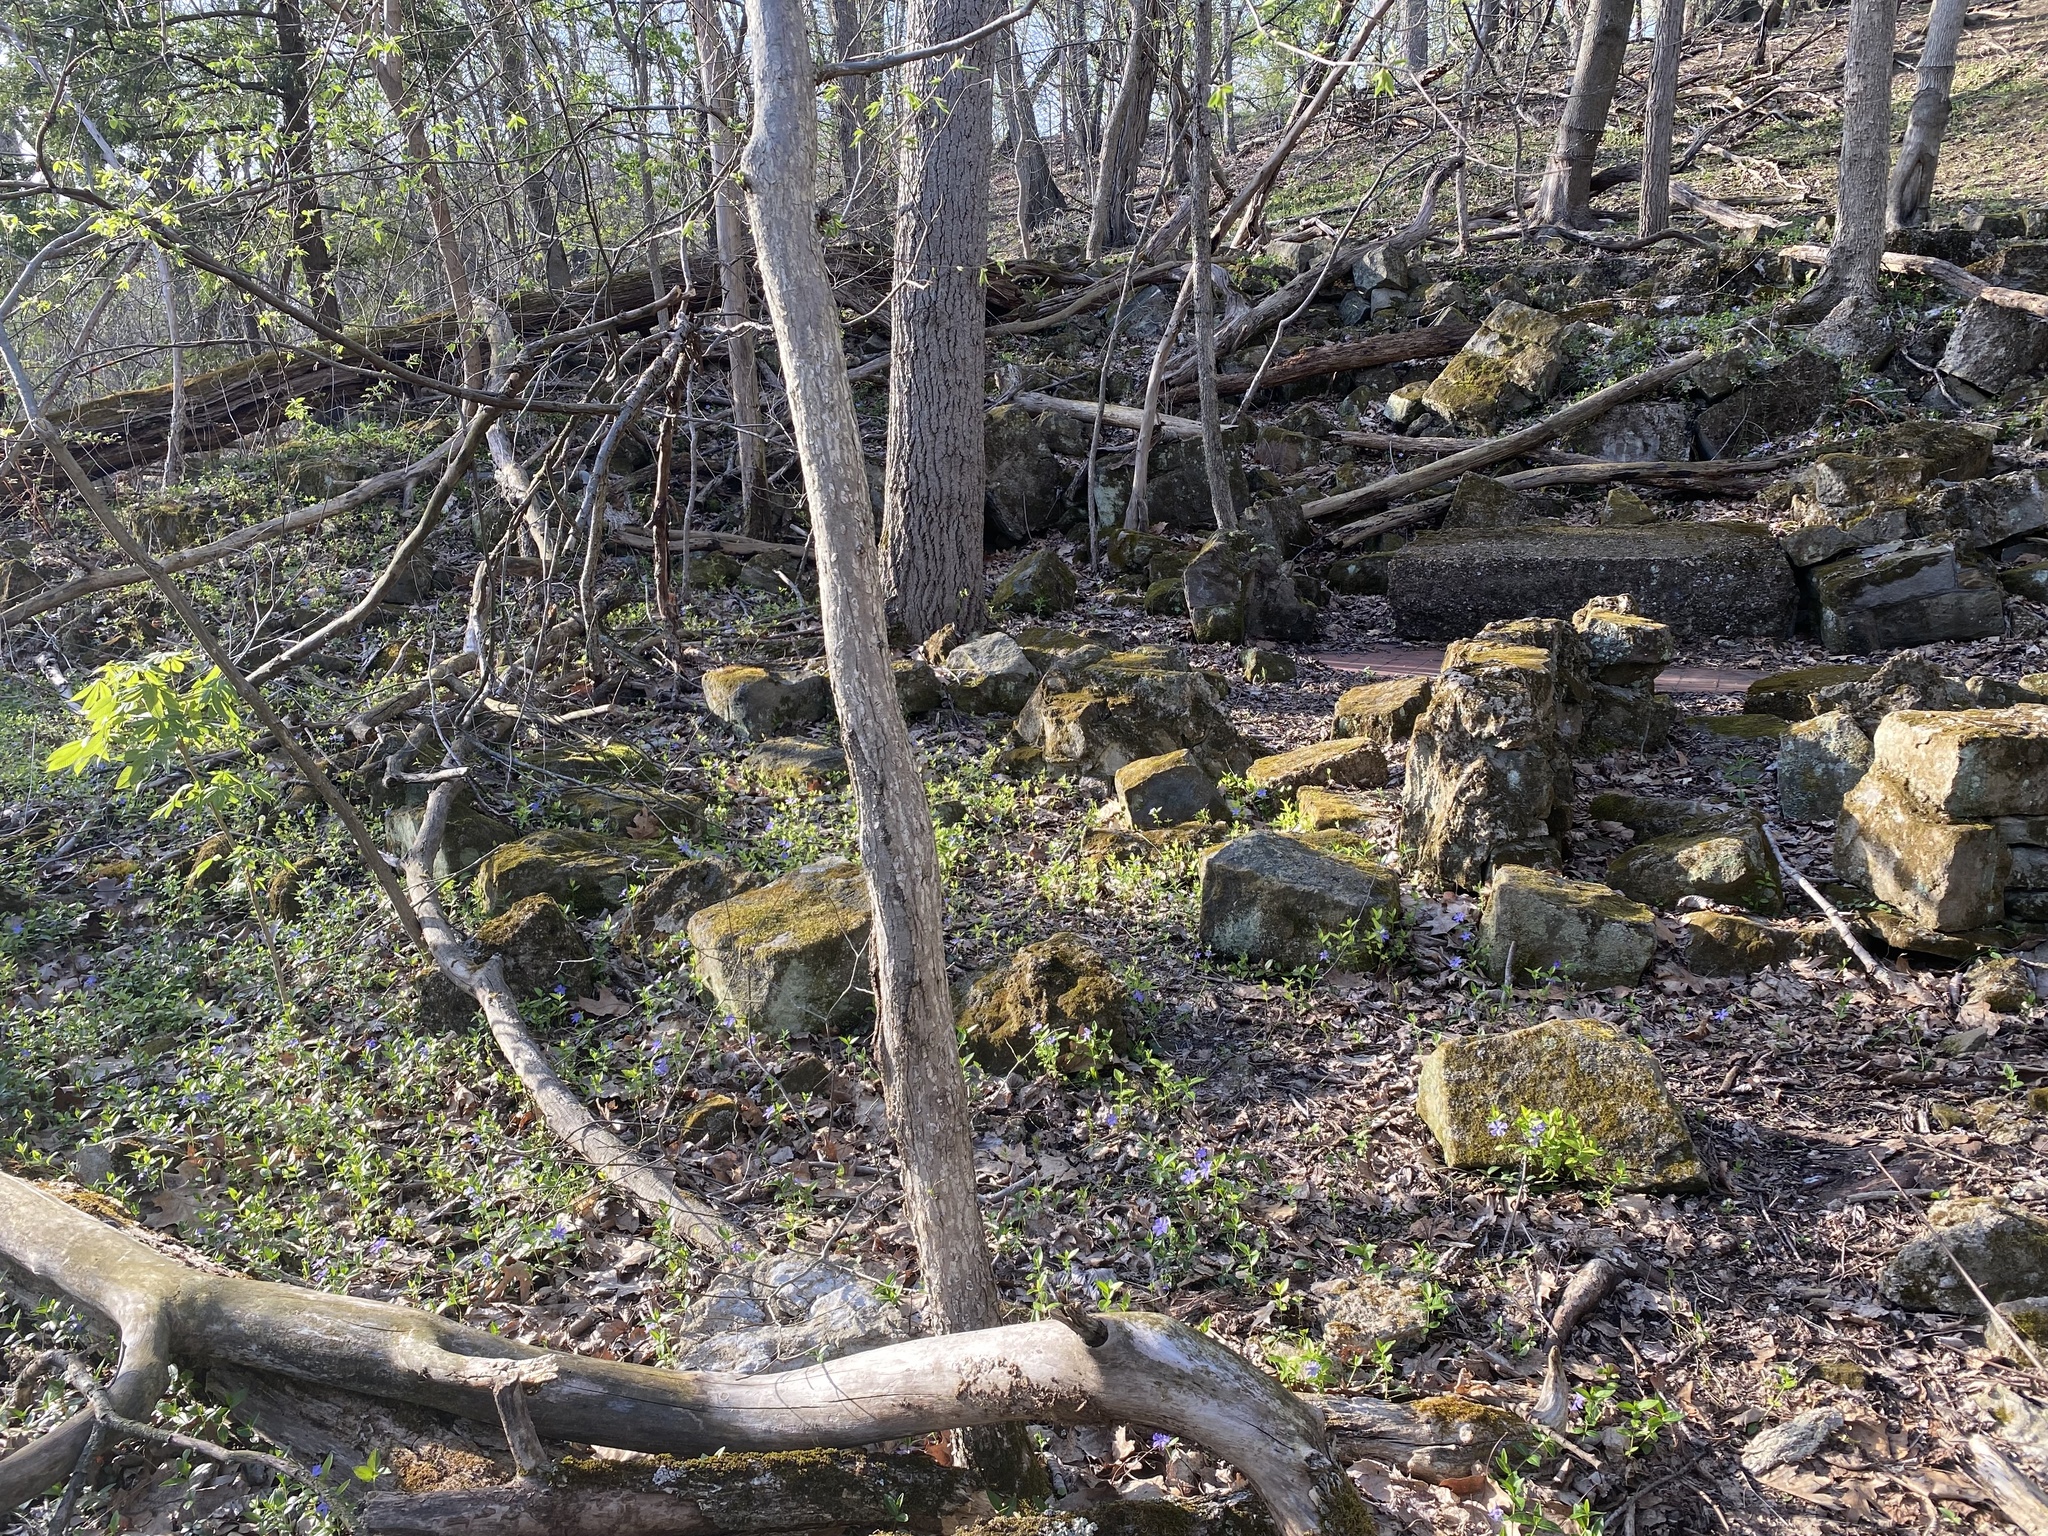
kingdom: Plantae
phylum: Tracheophyta
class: Magnoliopsida
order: Gentianales
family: Apocynaceae
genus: Vinca
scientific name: Vinca minor
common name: Lesser periwinkle
